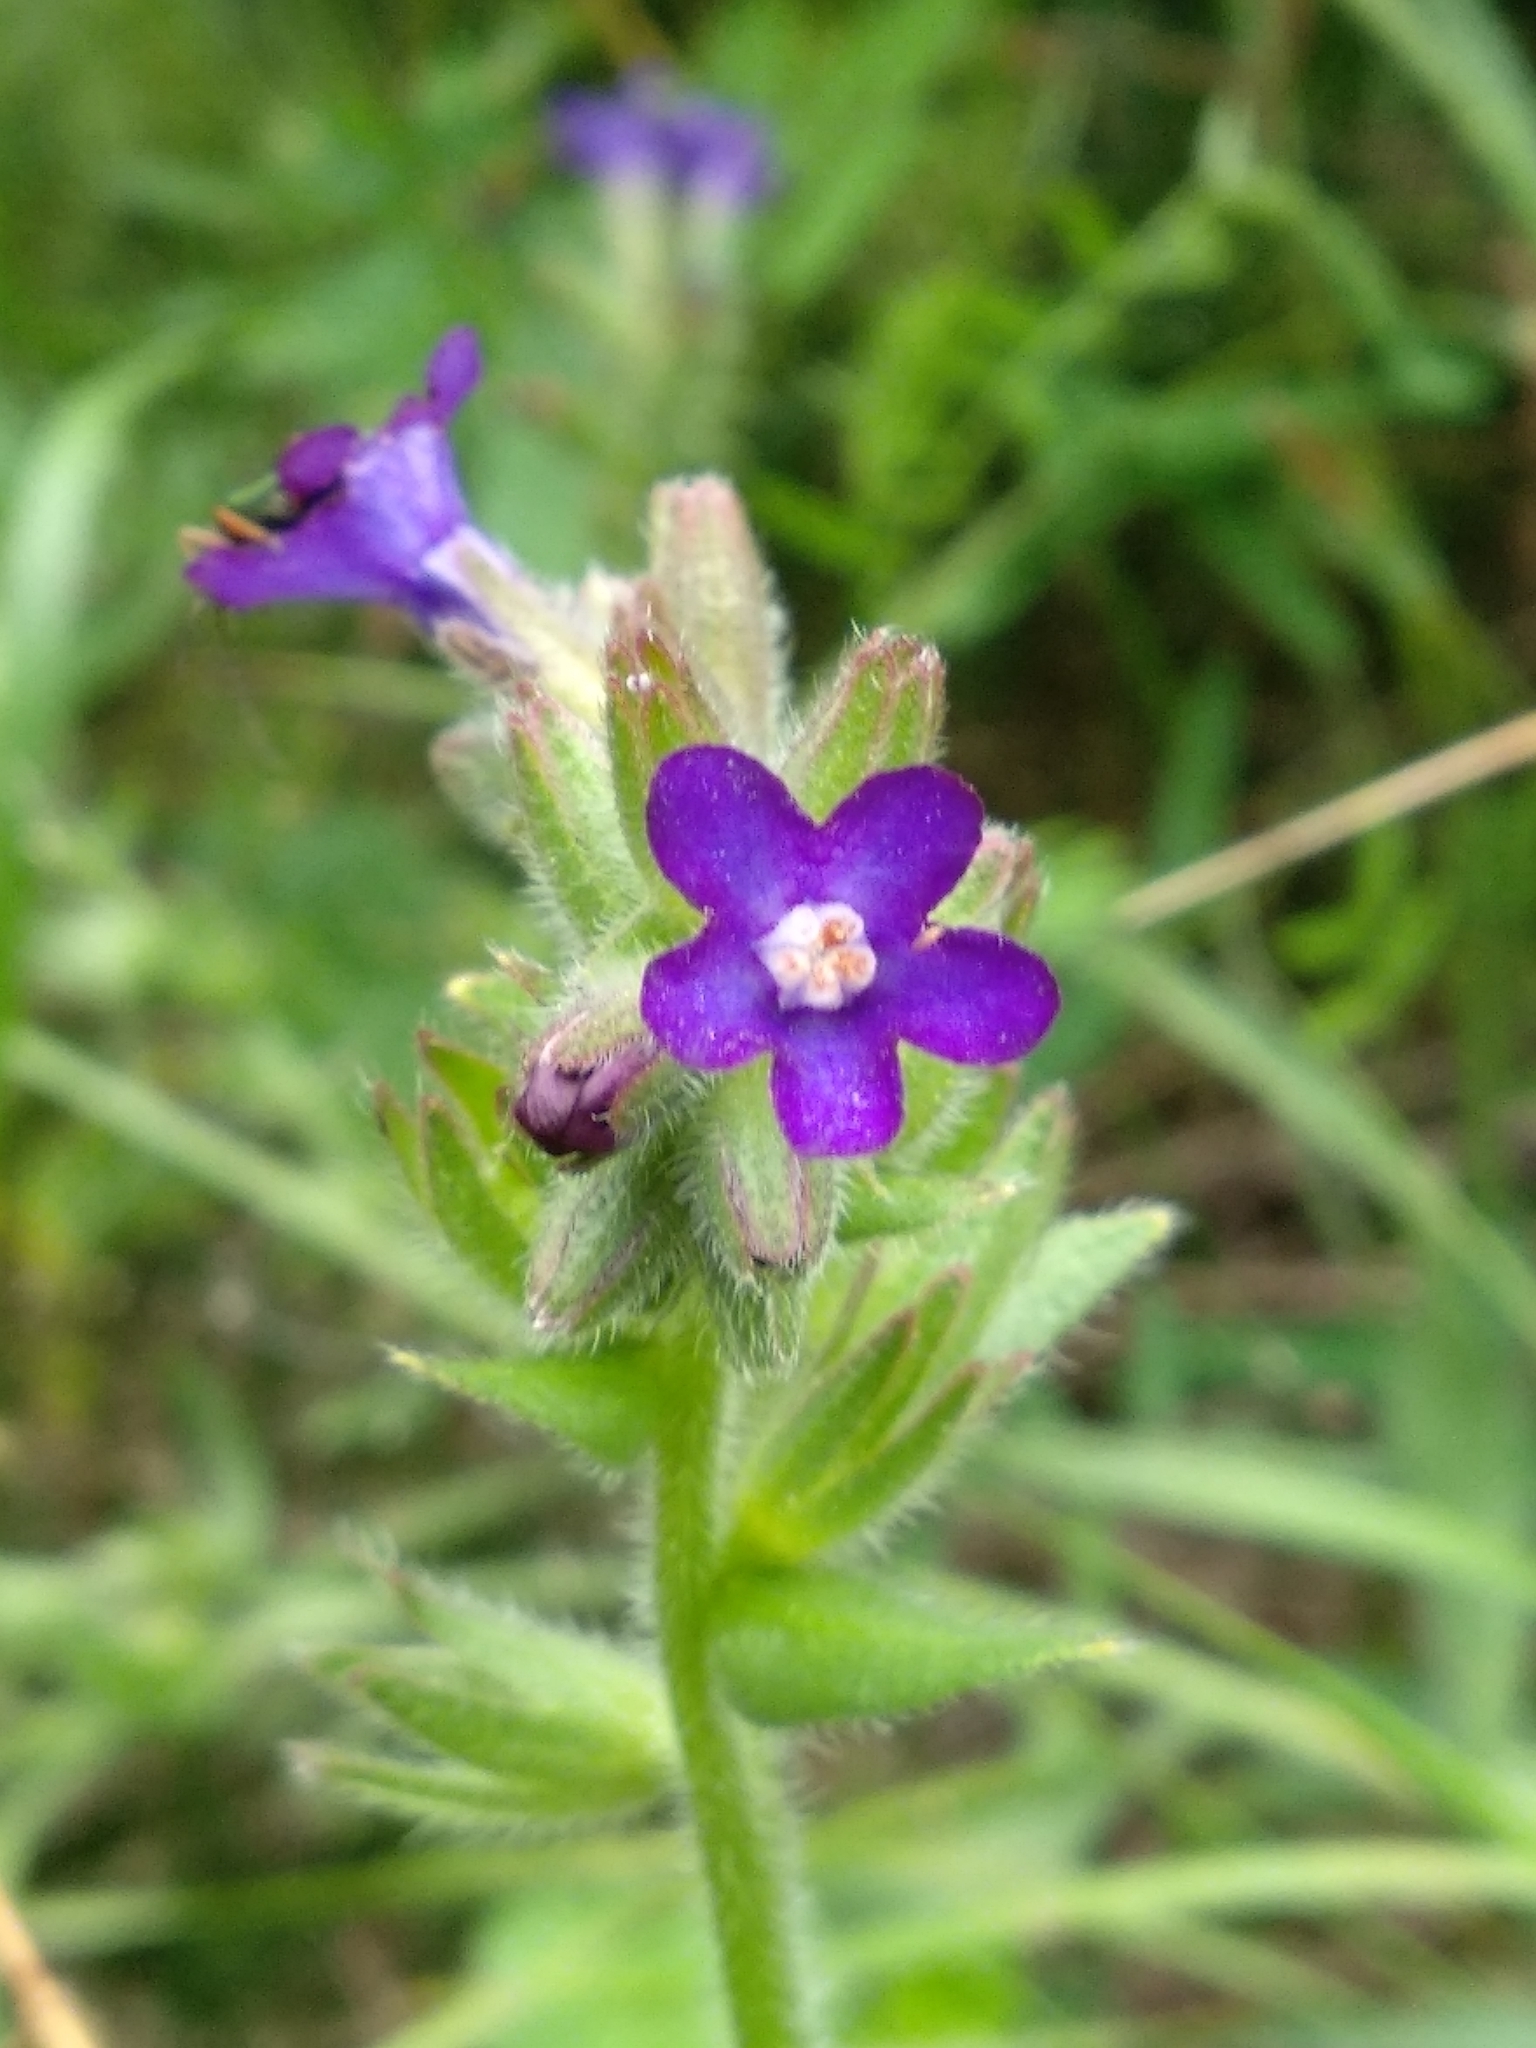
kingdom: Plantae
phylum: Tracheophyta
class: Magnoliopsida
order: Boraginales
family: Boraginaceae
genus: Anchusa
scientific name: Anchusa officinalis
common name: Alkanet
